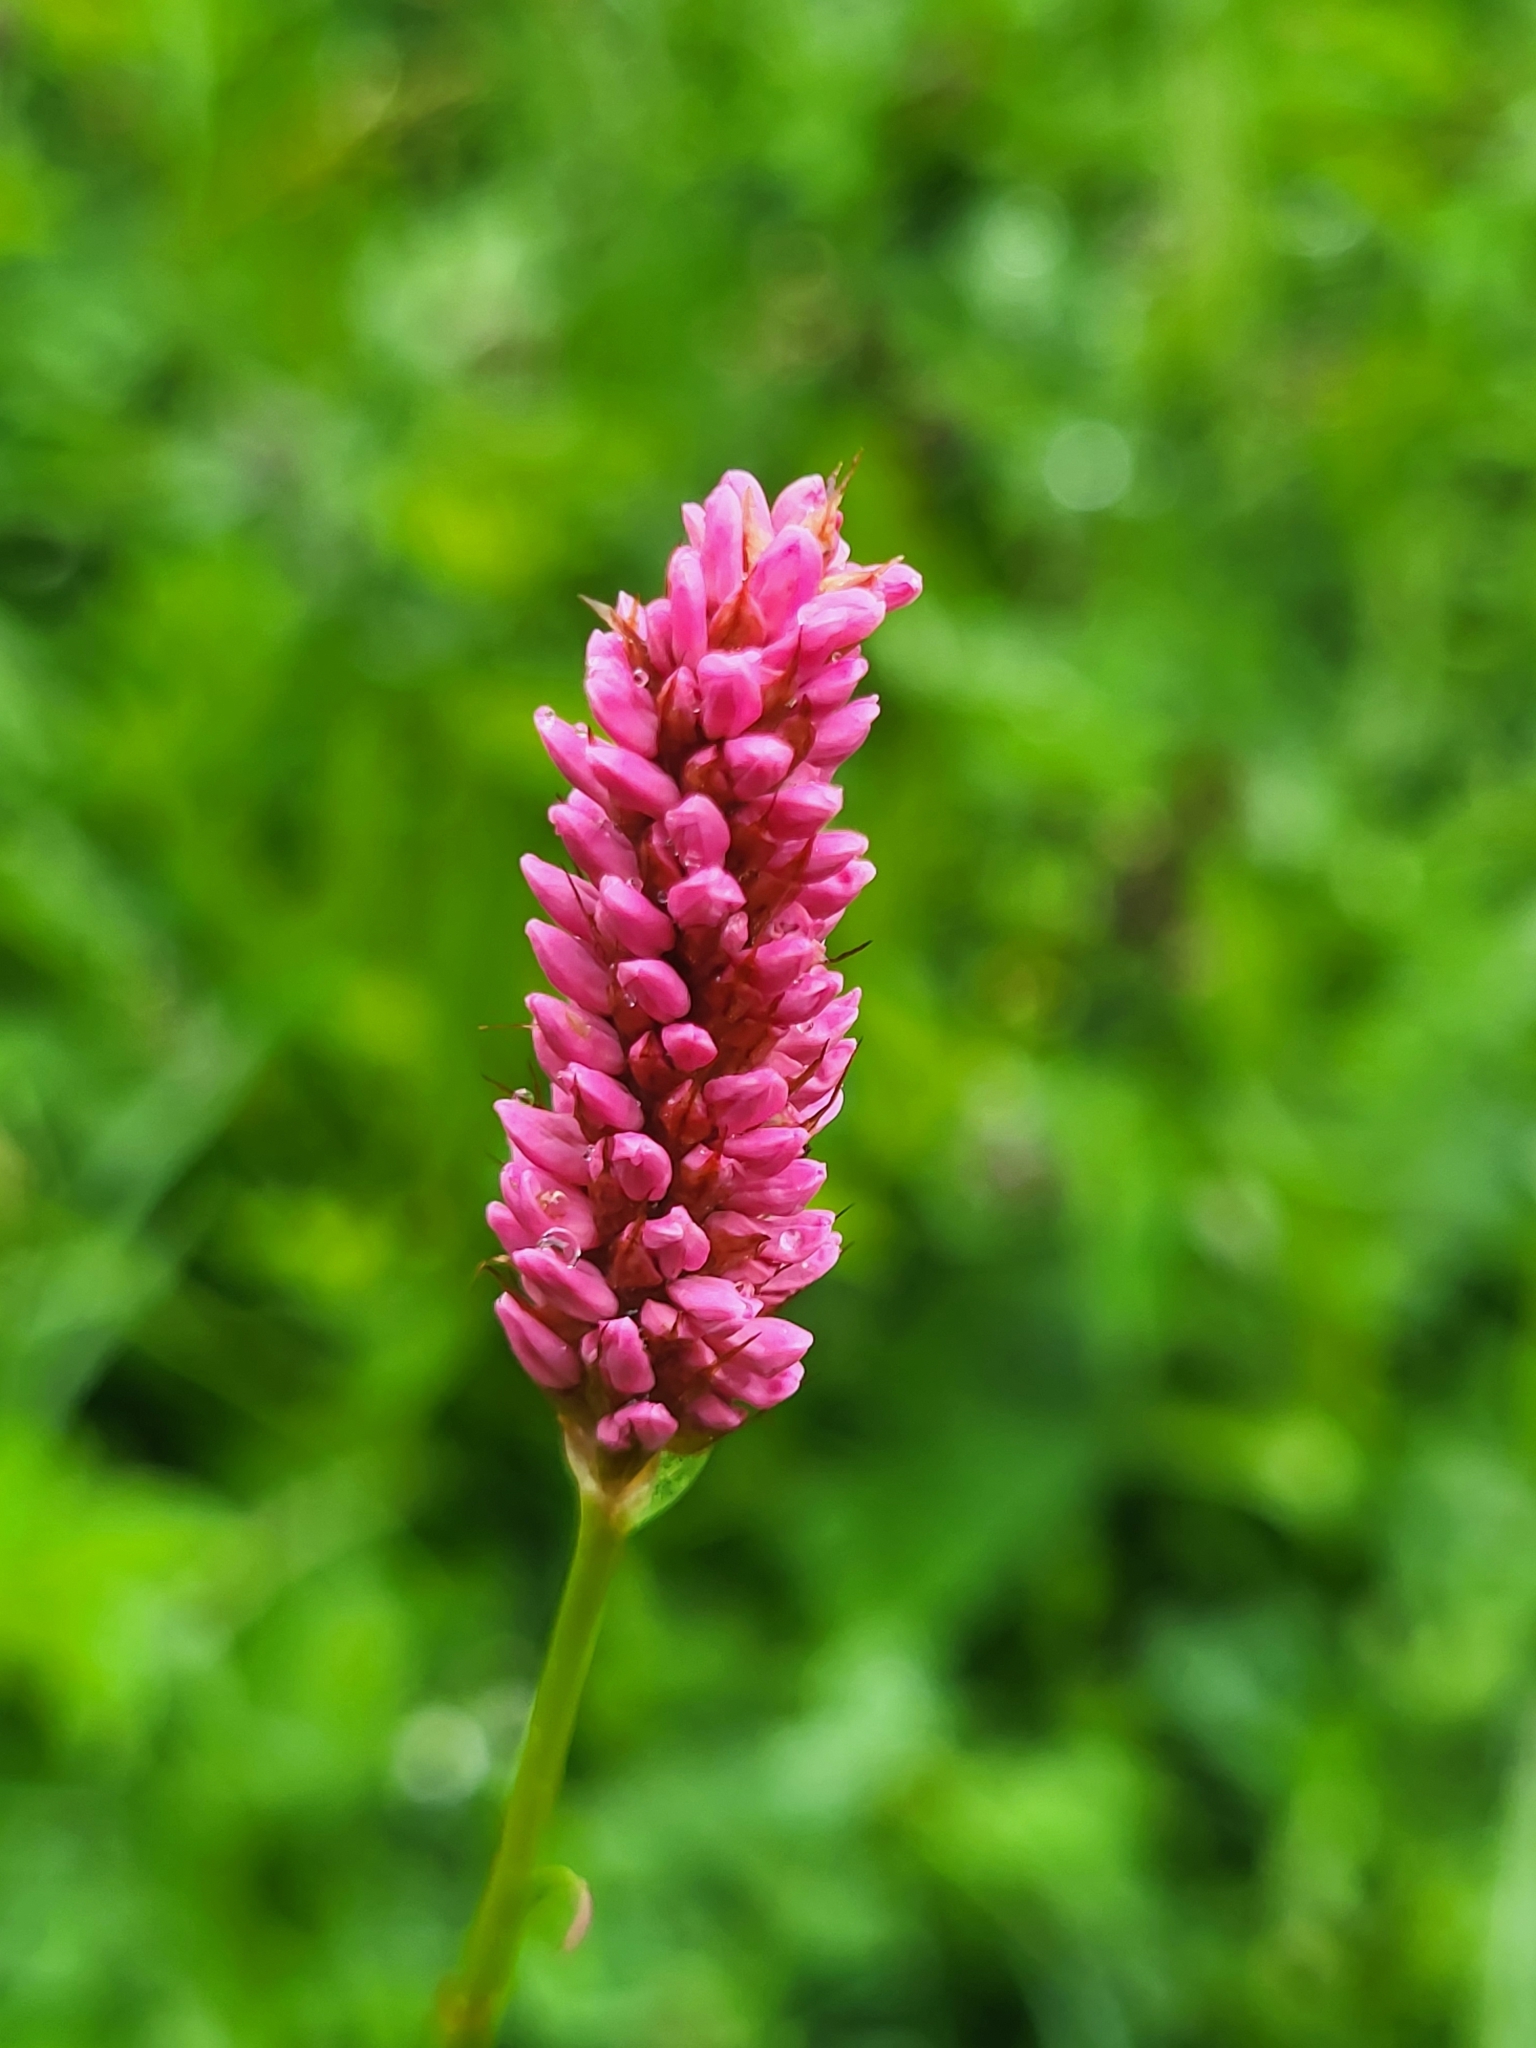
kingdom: Plantae
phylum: Tracheophyta
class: Magnoliopsida
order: Caryophyllales
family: Polygonaceae
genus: Bistorta
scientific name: Bistorta carnea
